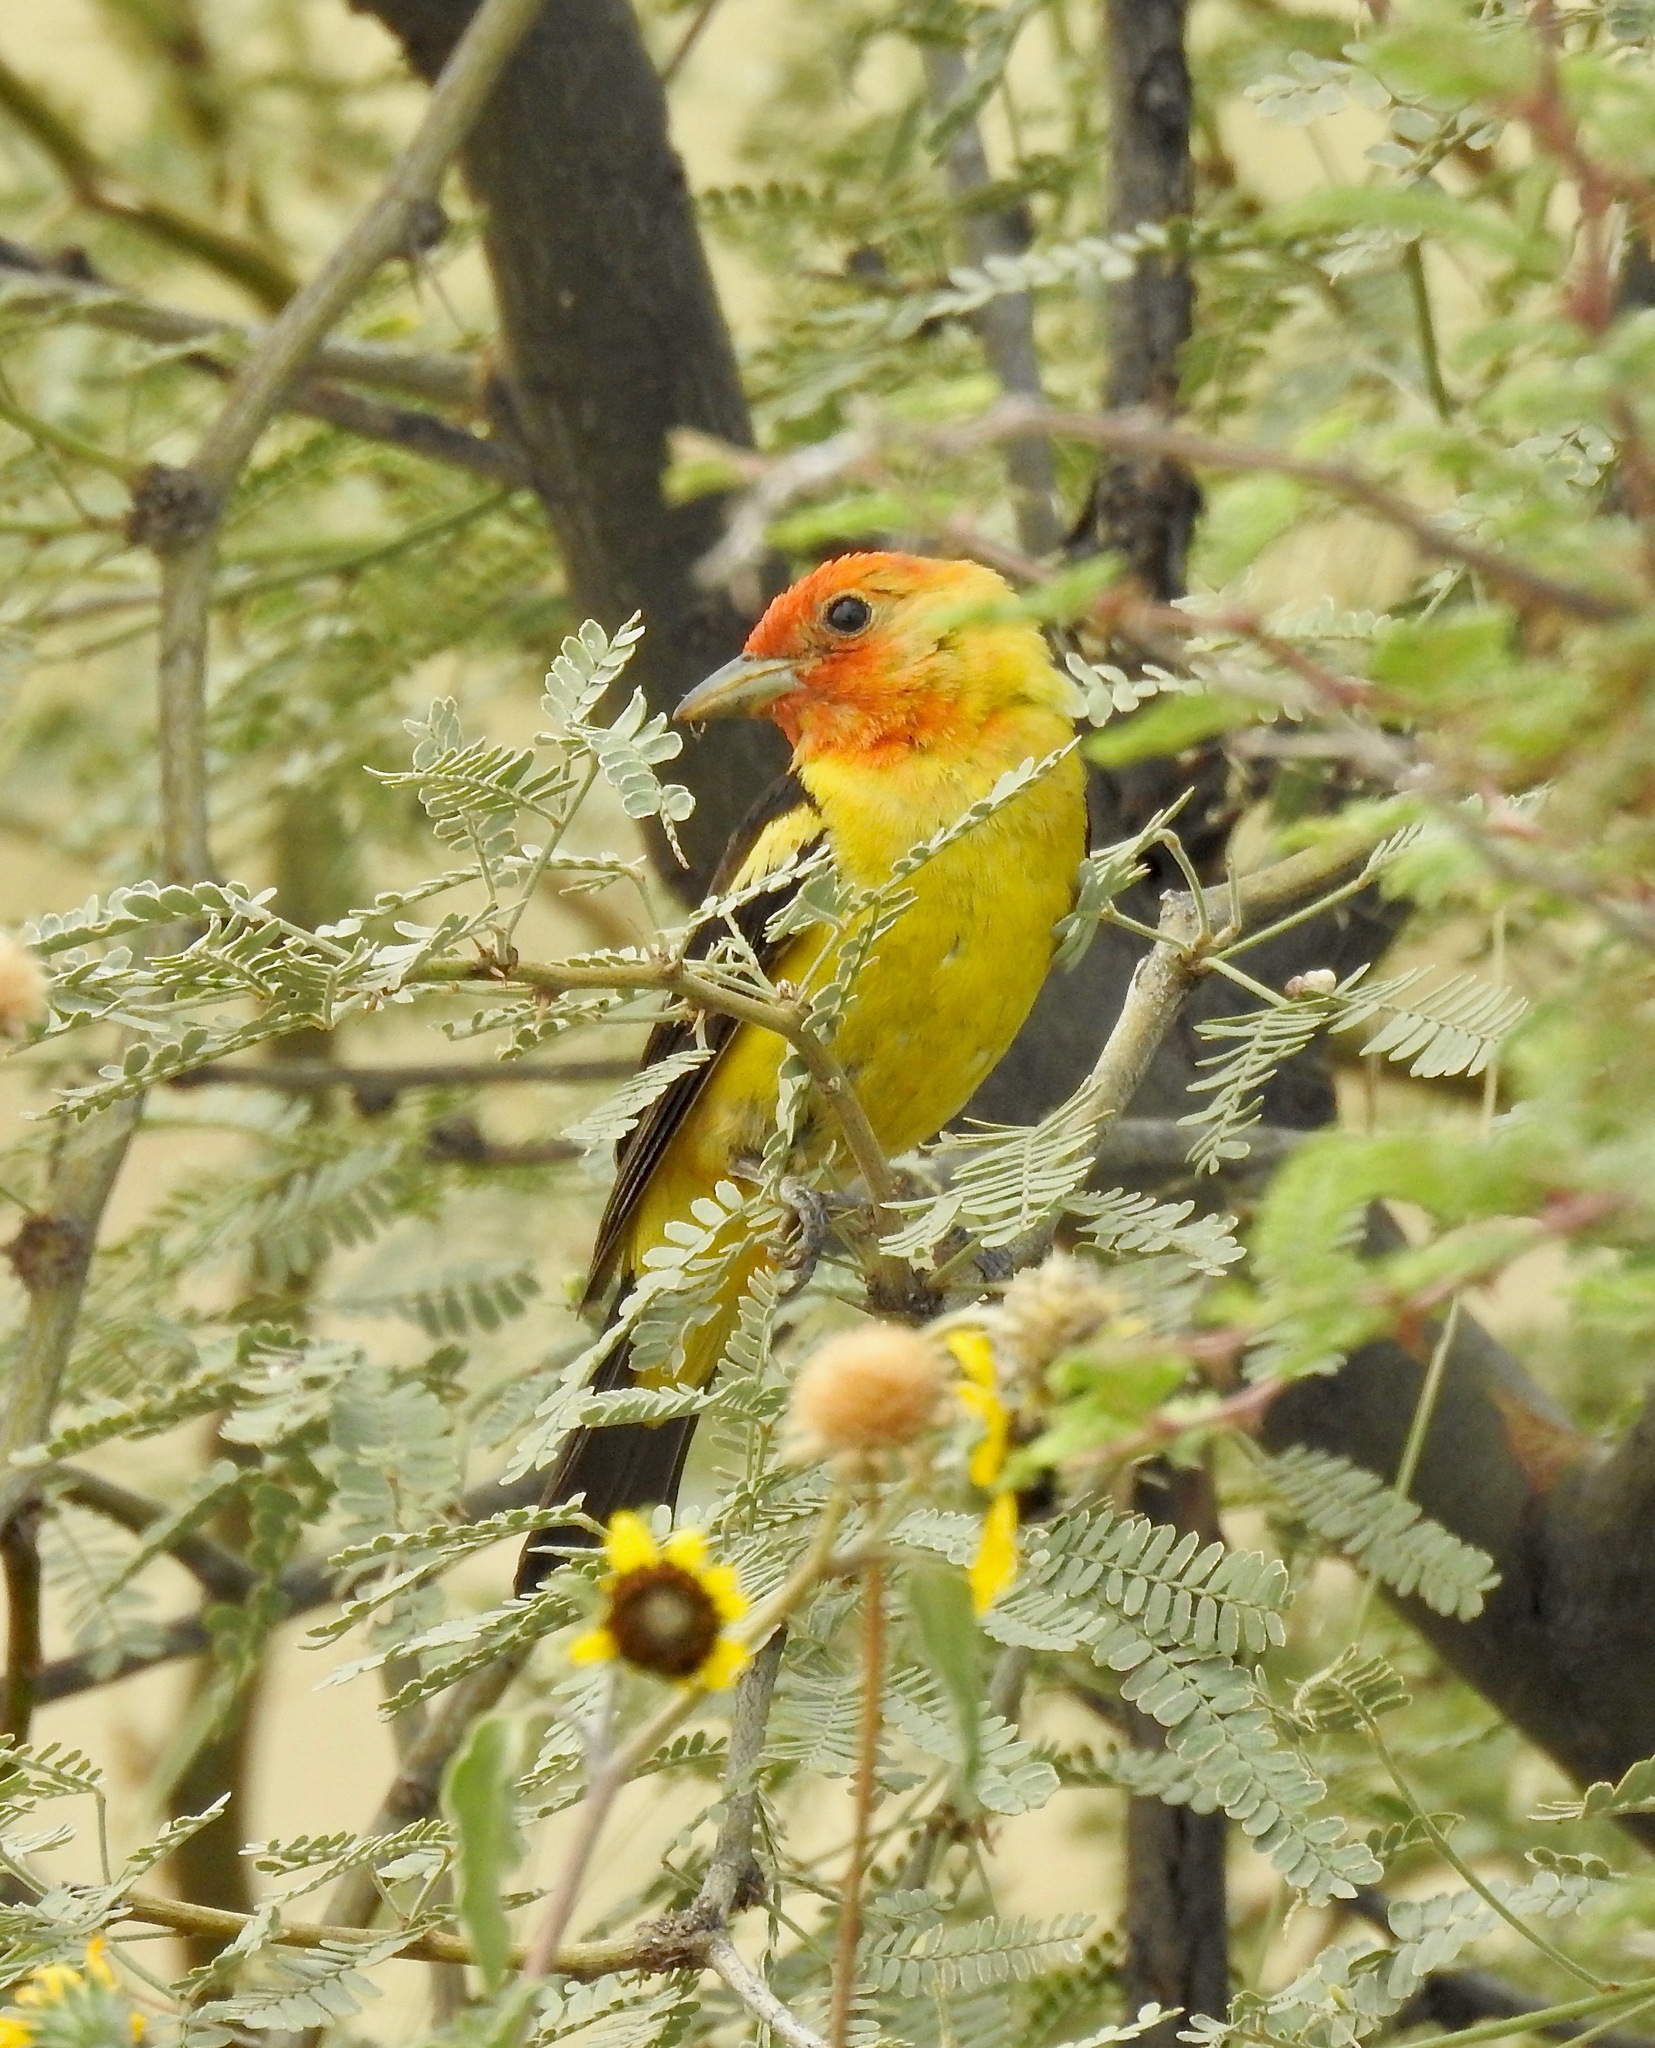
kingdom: Animalia
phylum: Chordata
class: Aves
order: Passeriformes
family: Cardinalidae
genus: Piranga
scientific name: Piranga ludoviciana
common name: Western tanager
